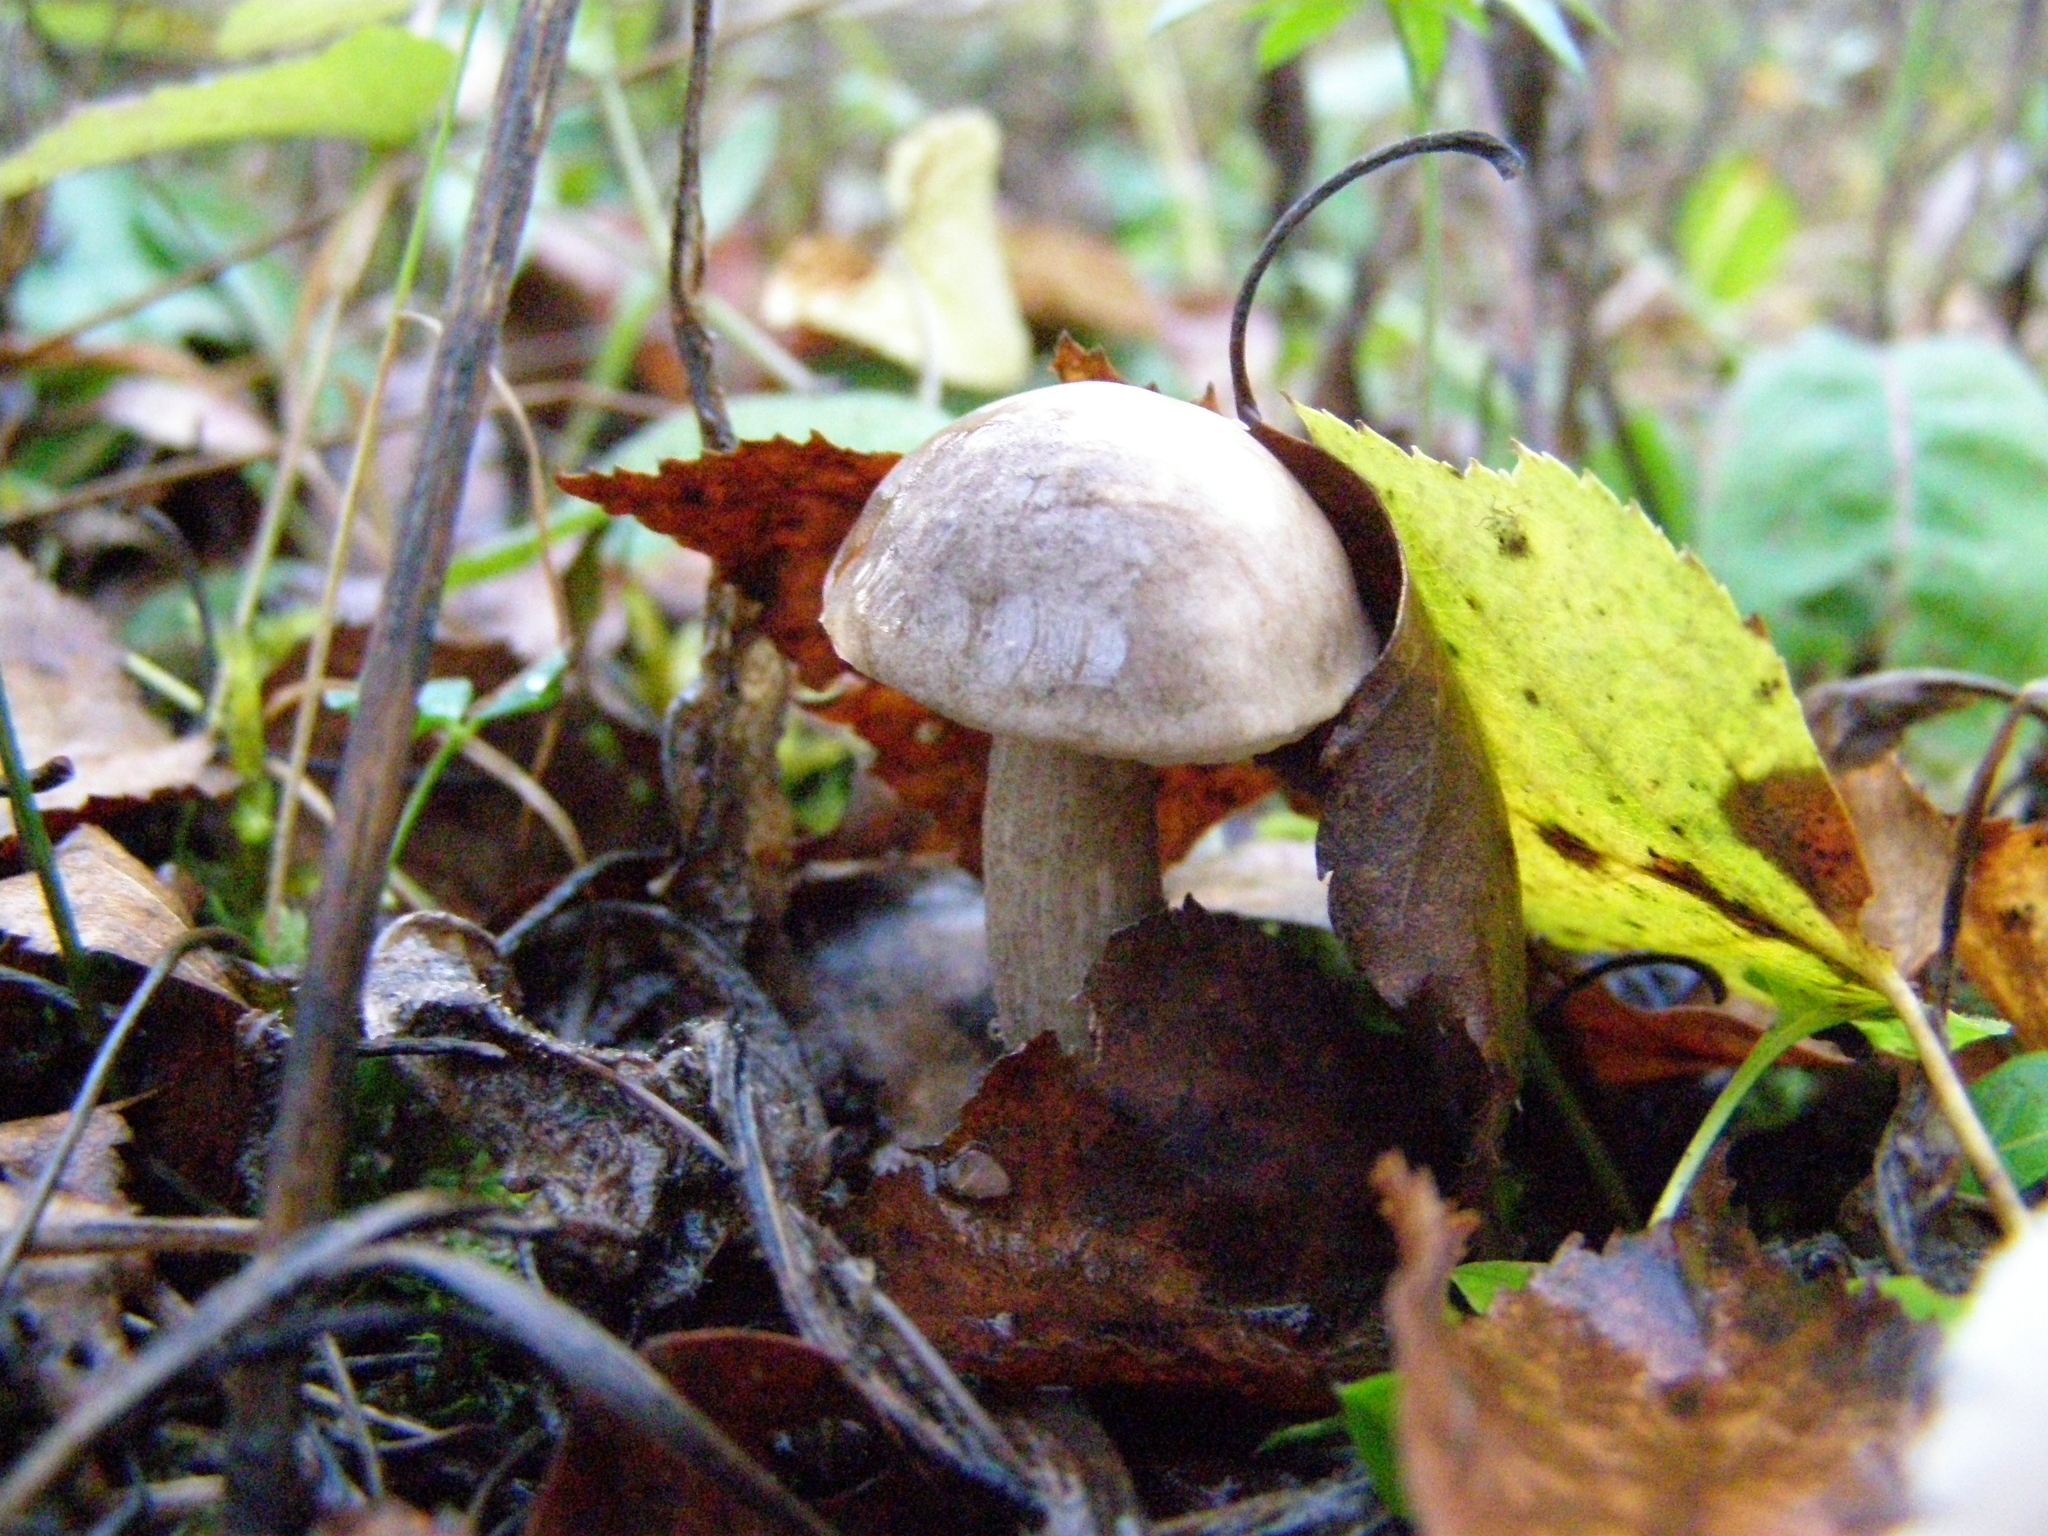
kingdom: Fungi
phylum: Basidiomycota
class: Agaricomycetes
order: Boletales
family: Boletaceae
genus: Leccinum
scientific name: Leccinum scabrum
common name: Blushing bolete
